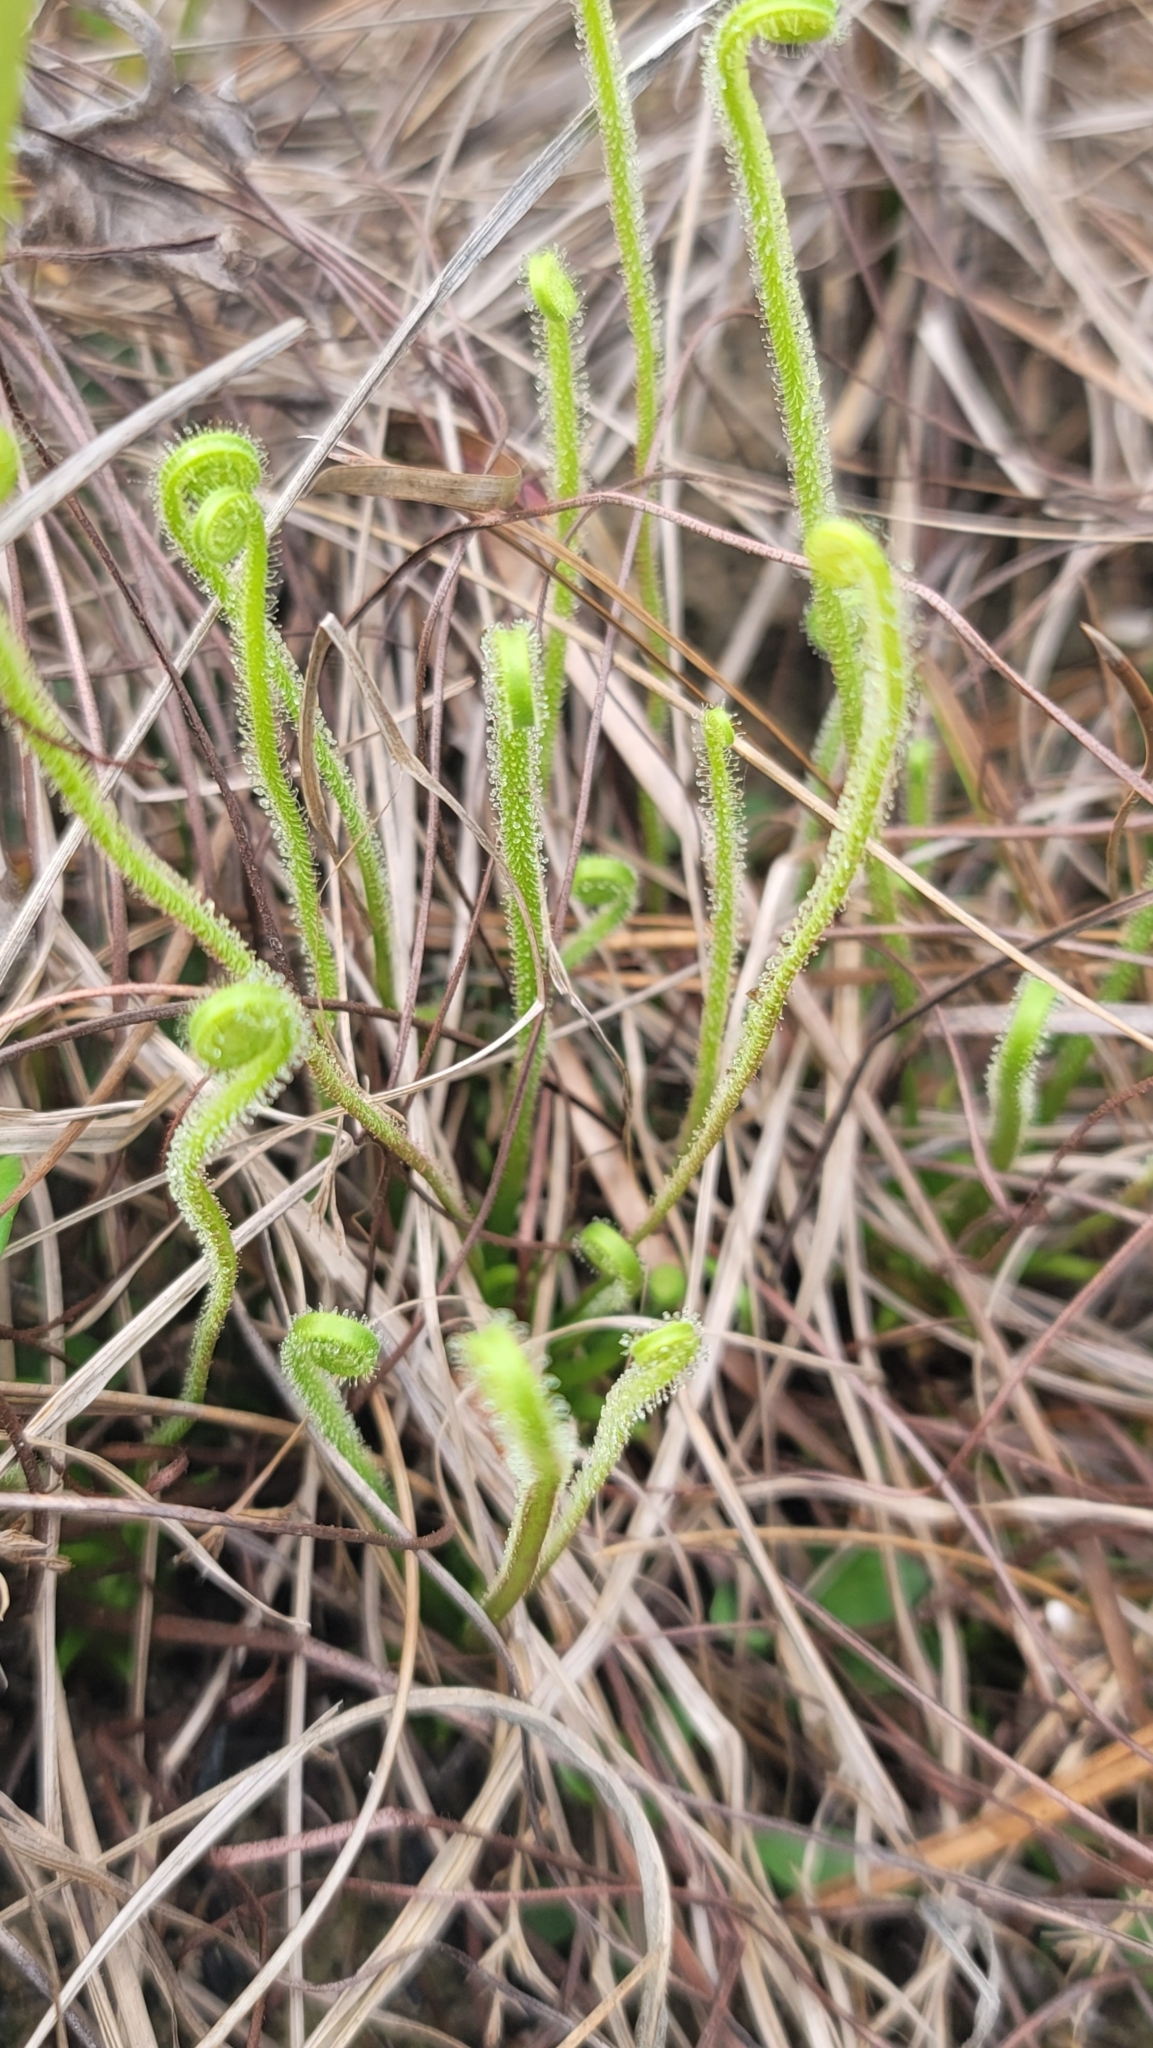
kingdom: Plantae
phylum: Tracheophyta
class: Magnoliopsida
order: Caryophyllales
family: Droseraceae
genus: Drosera
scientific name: Drosera filiformis
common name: Dew-thread
